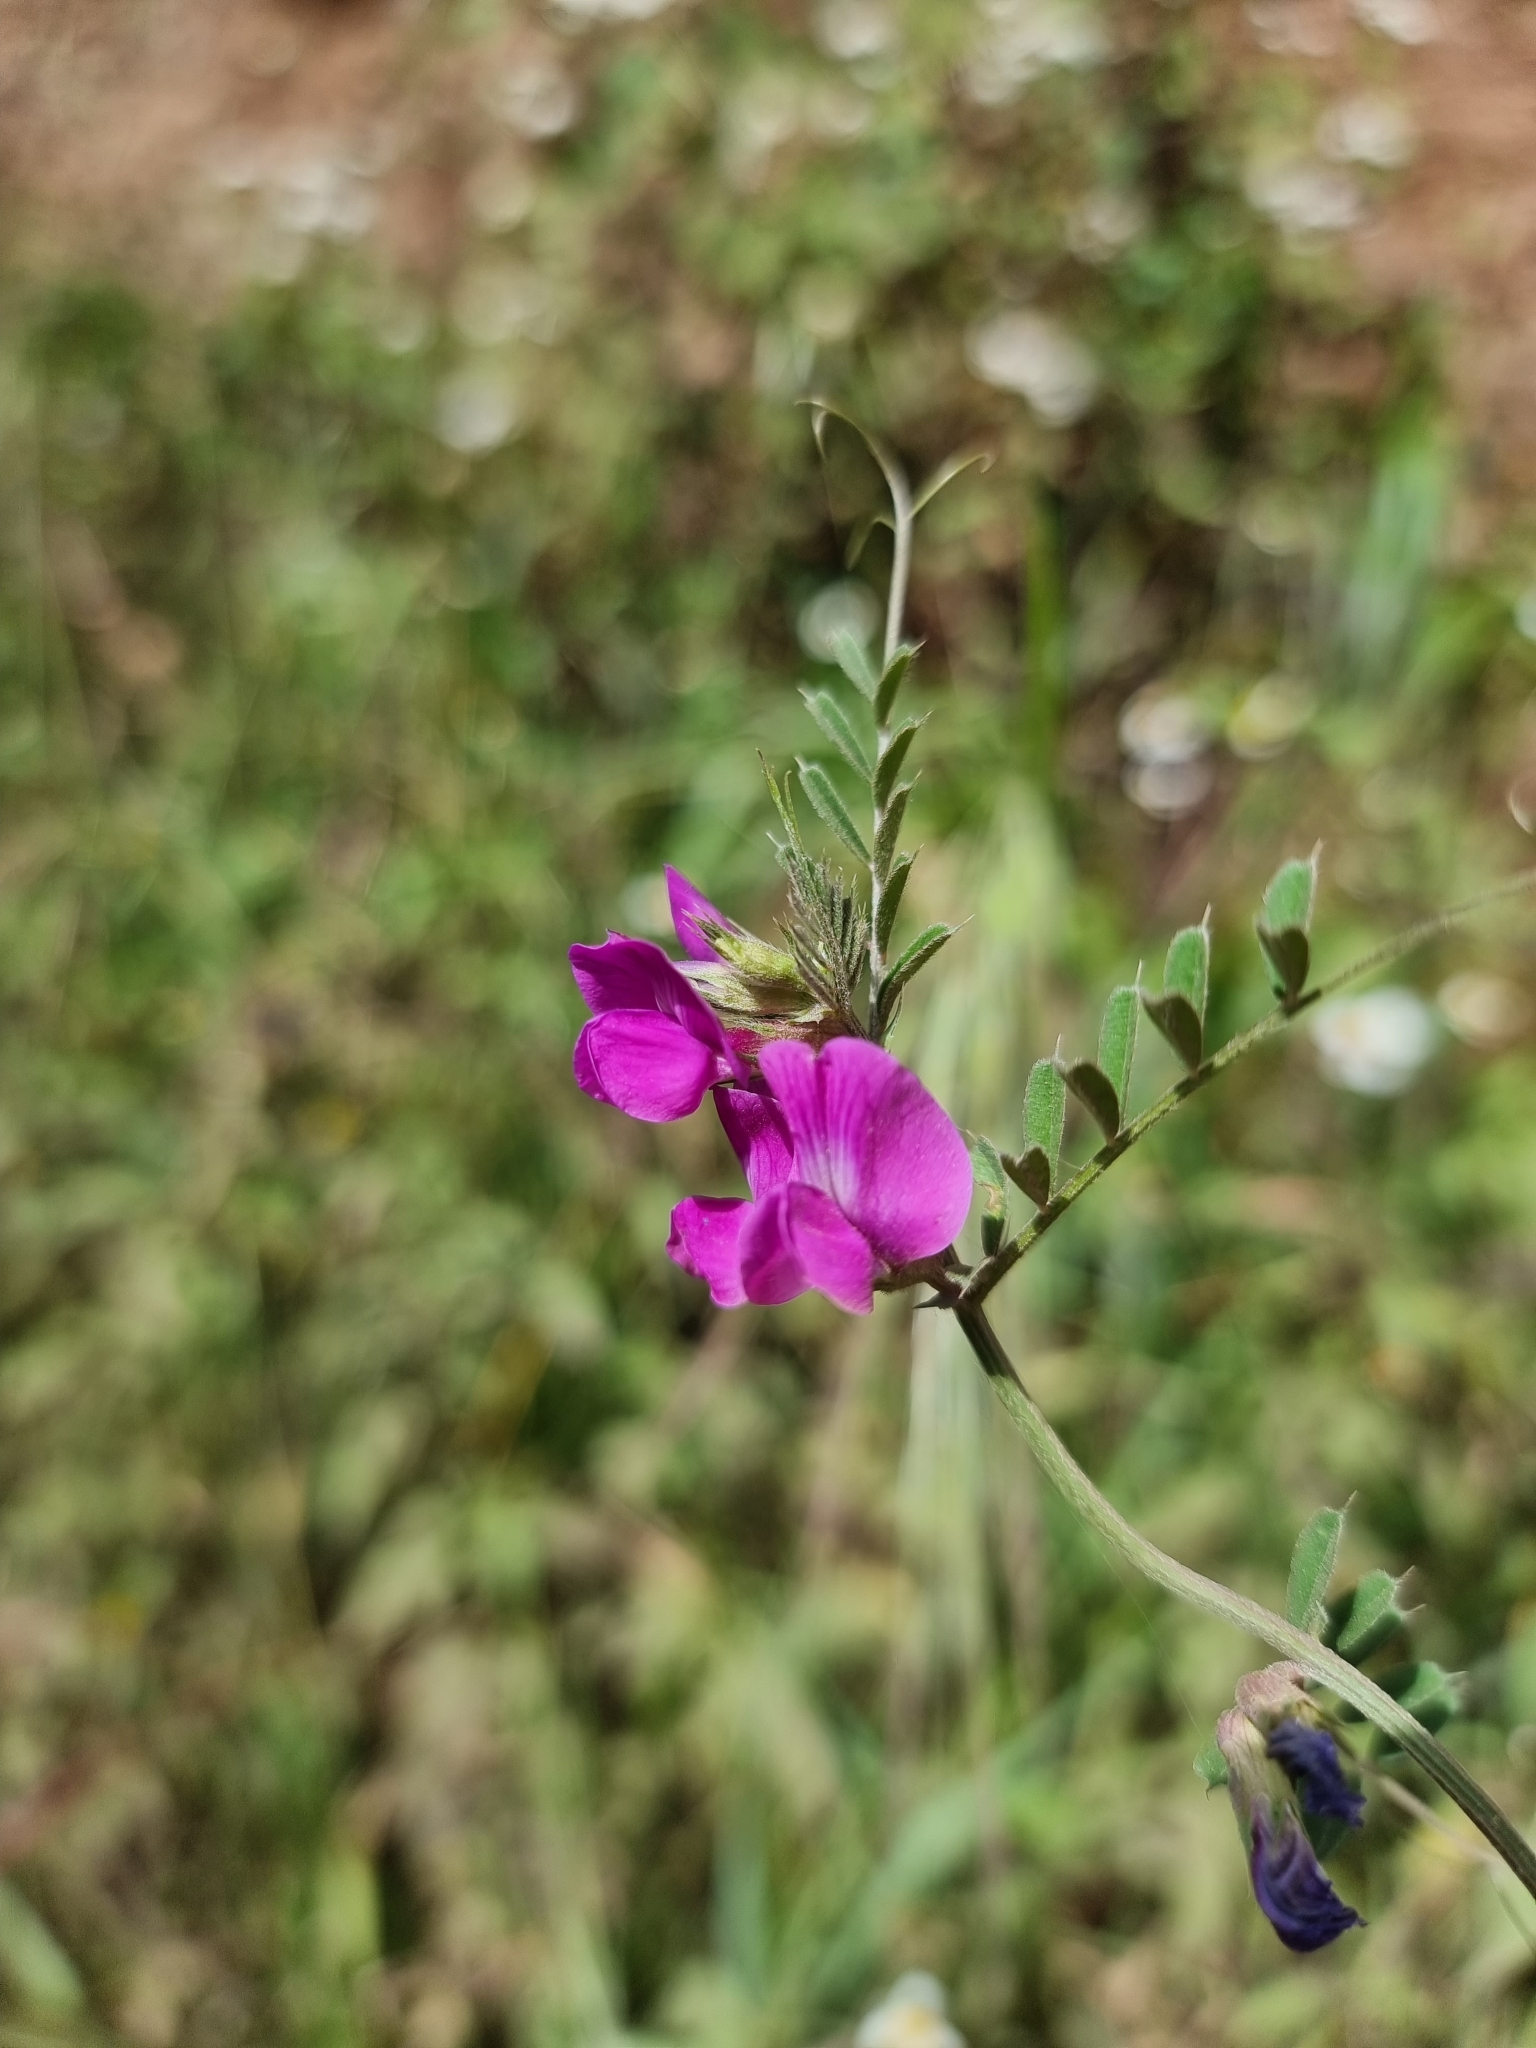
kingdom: Plantae
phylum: Tracheophyta
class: Magnoliopsida
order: Fabales
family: Fabaceae
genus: Vicia
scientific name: Vicia sativa
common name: Garden vetch
